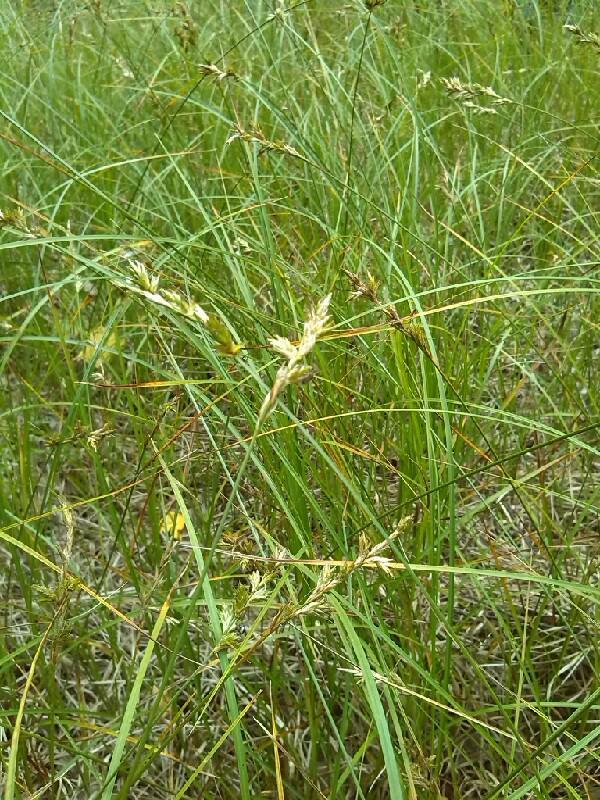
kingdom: Plantae
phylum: Tracheophyta
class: Liliopsida
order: Poales
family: Cyperaceae
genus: Carex
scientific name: Carex pseudobrizoides
